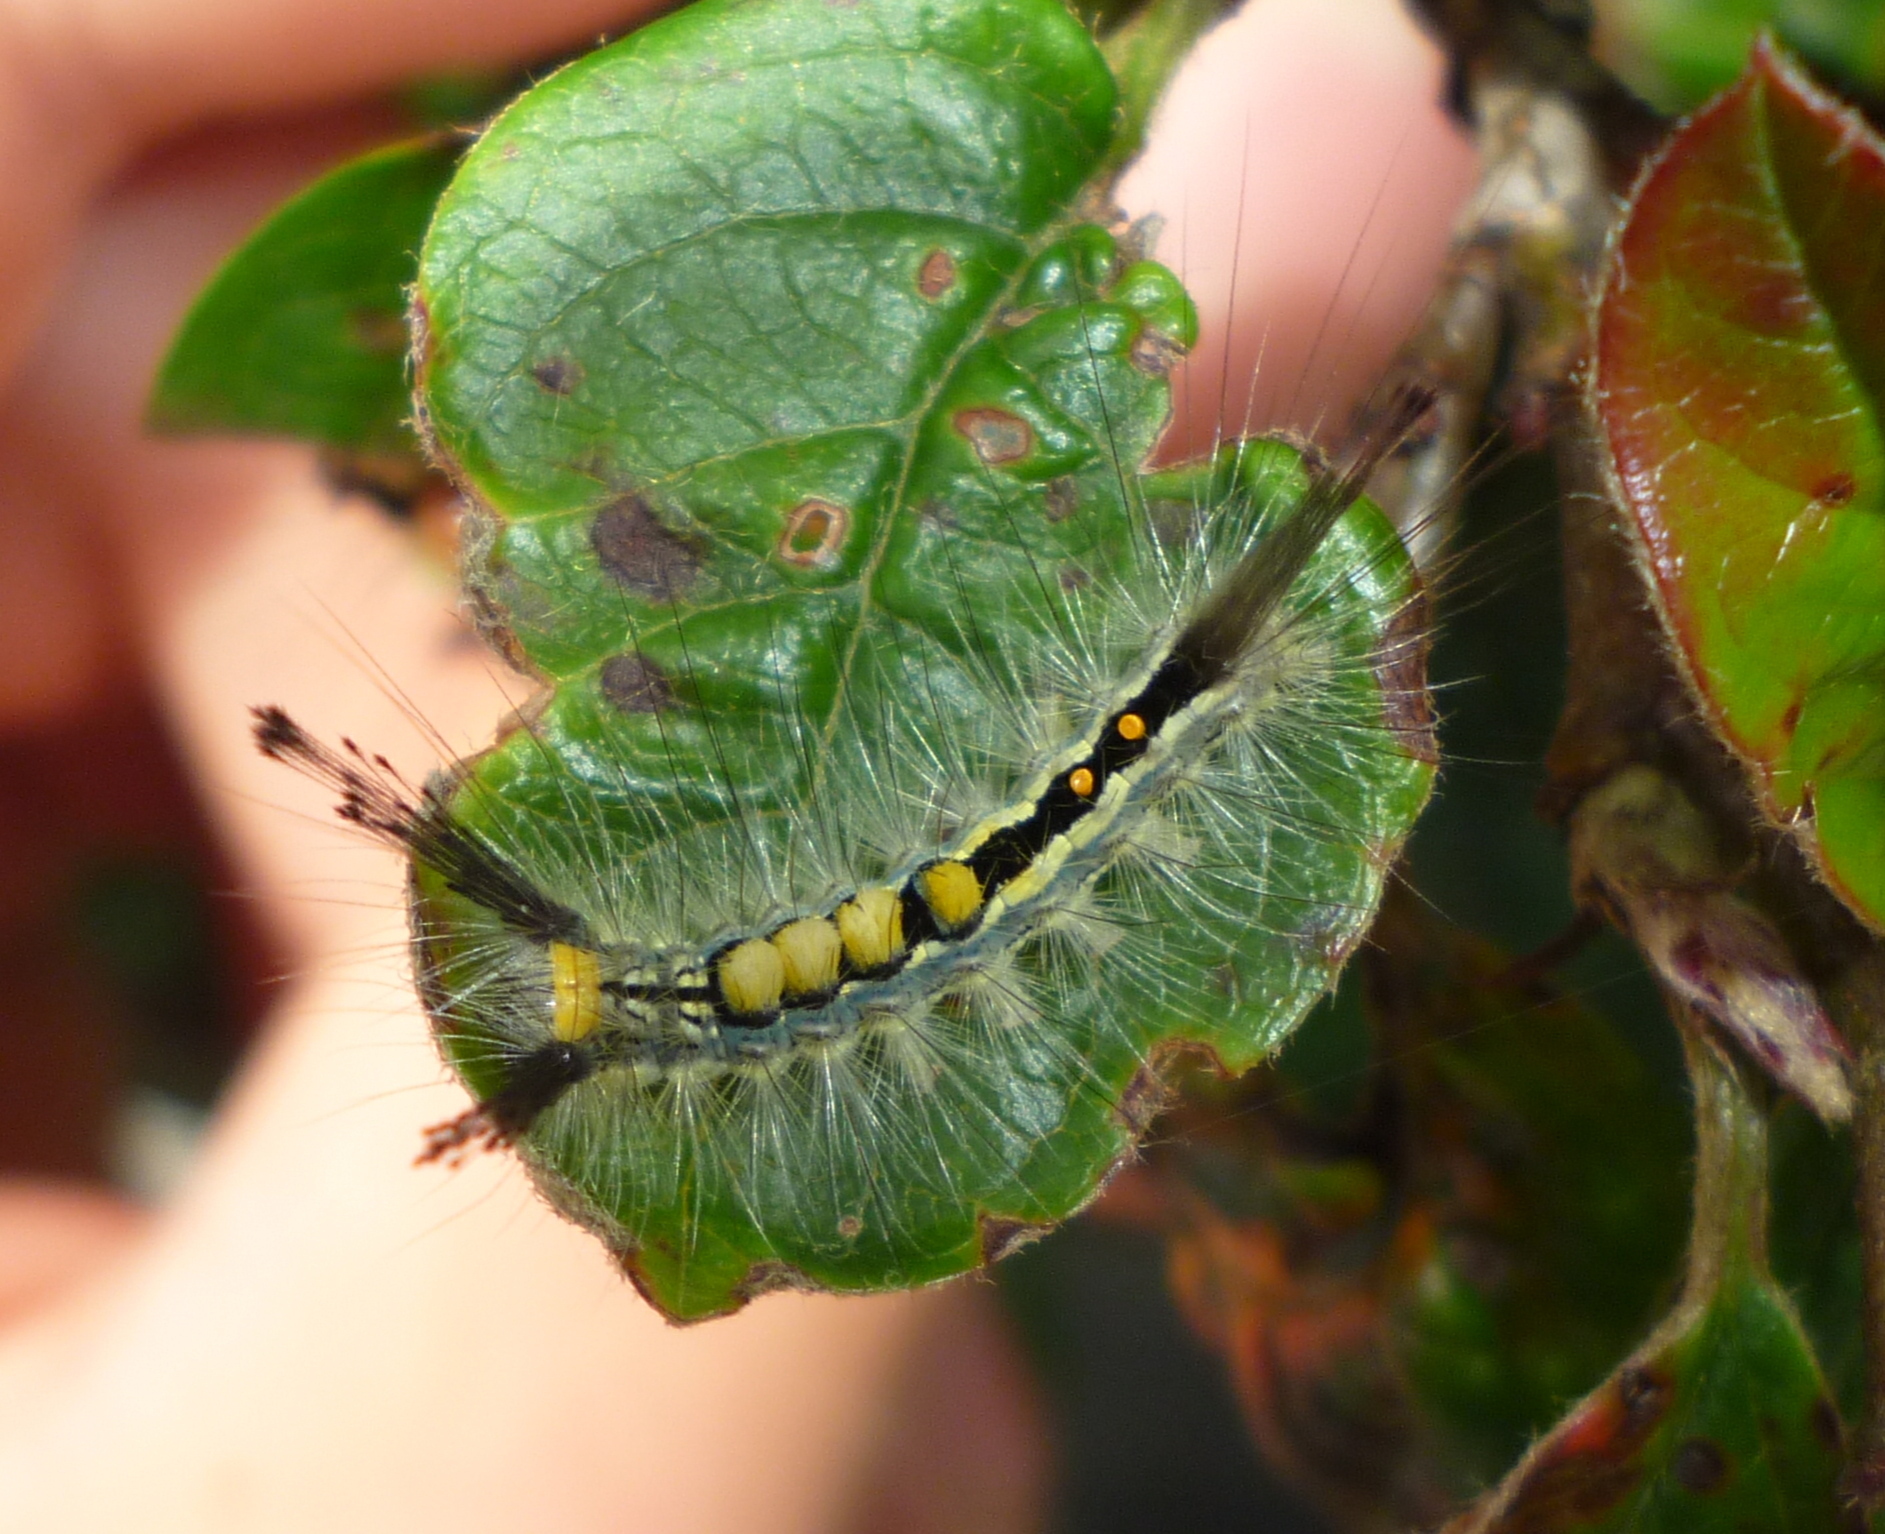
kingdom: Animalia
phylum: Arthropoda
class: Insecta
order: Lepidoptera
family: Erebidae
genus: Orgyia
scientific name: Orgyia leucostigma
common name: White-marked tussock moth
